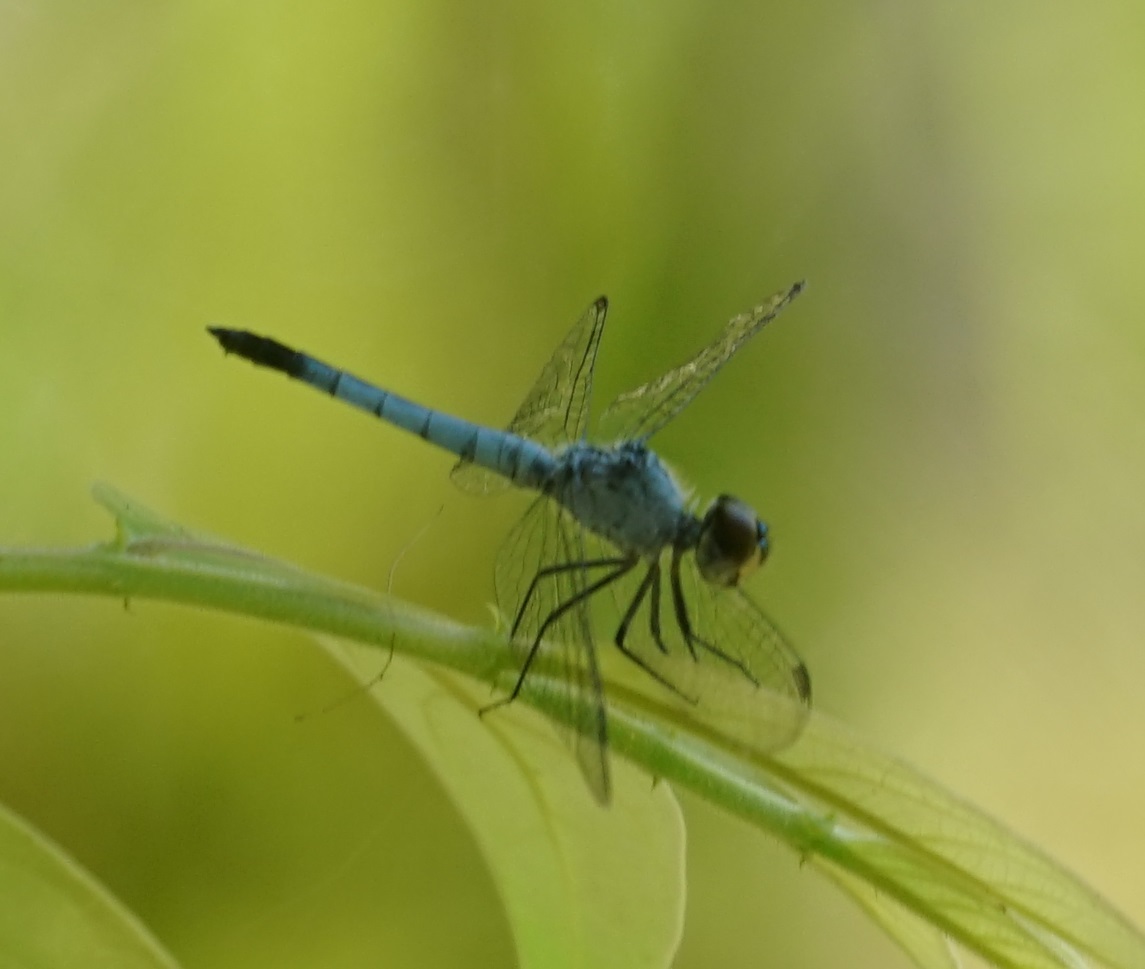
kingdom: Animalia
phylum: Arthropoda
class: Insecta
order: Odonata
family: Libellulidae
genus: Brachydiplax
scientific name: Brachydiplax denticauda
